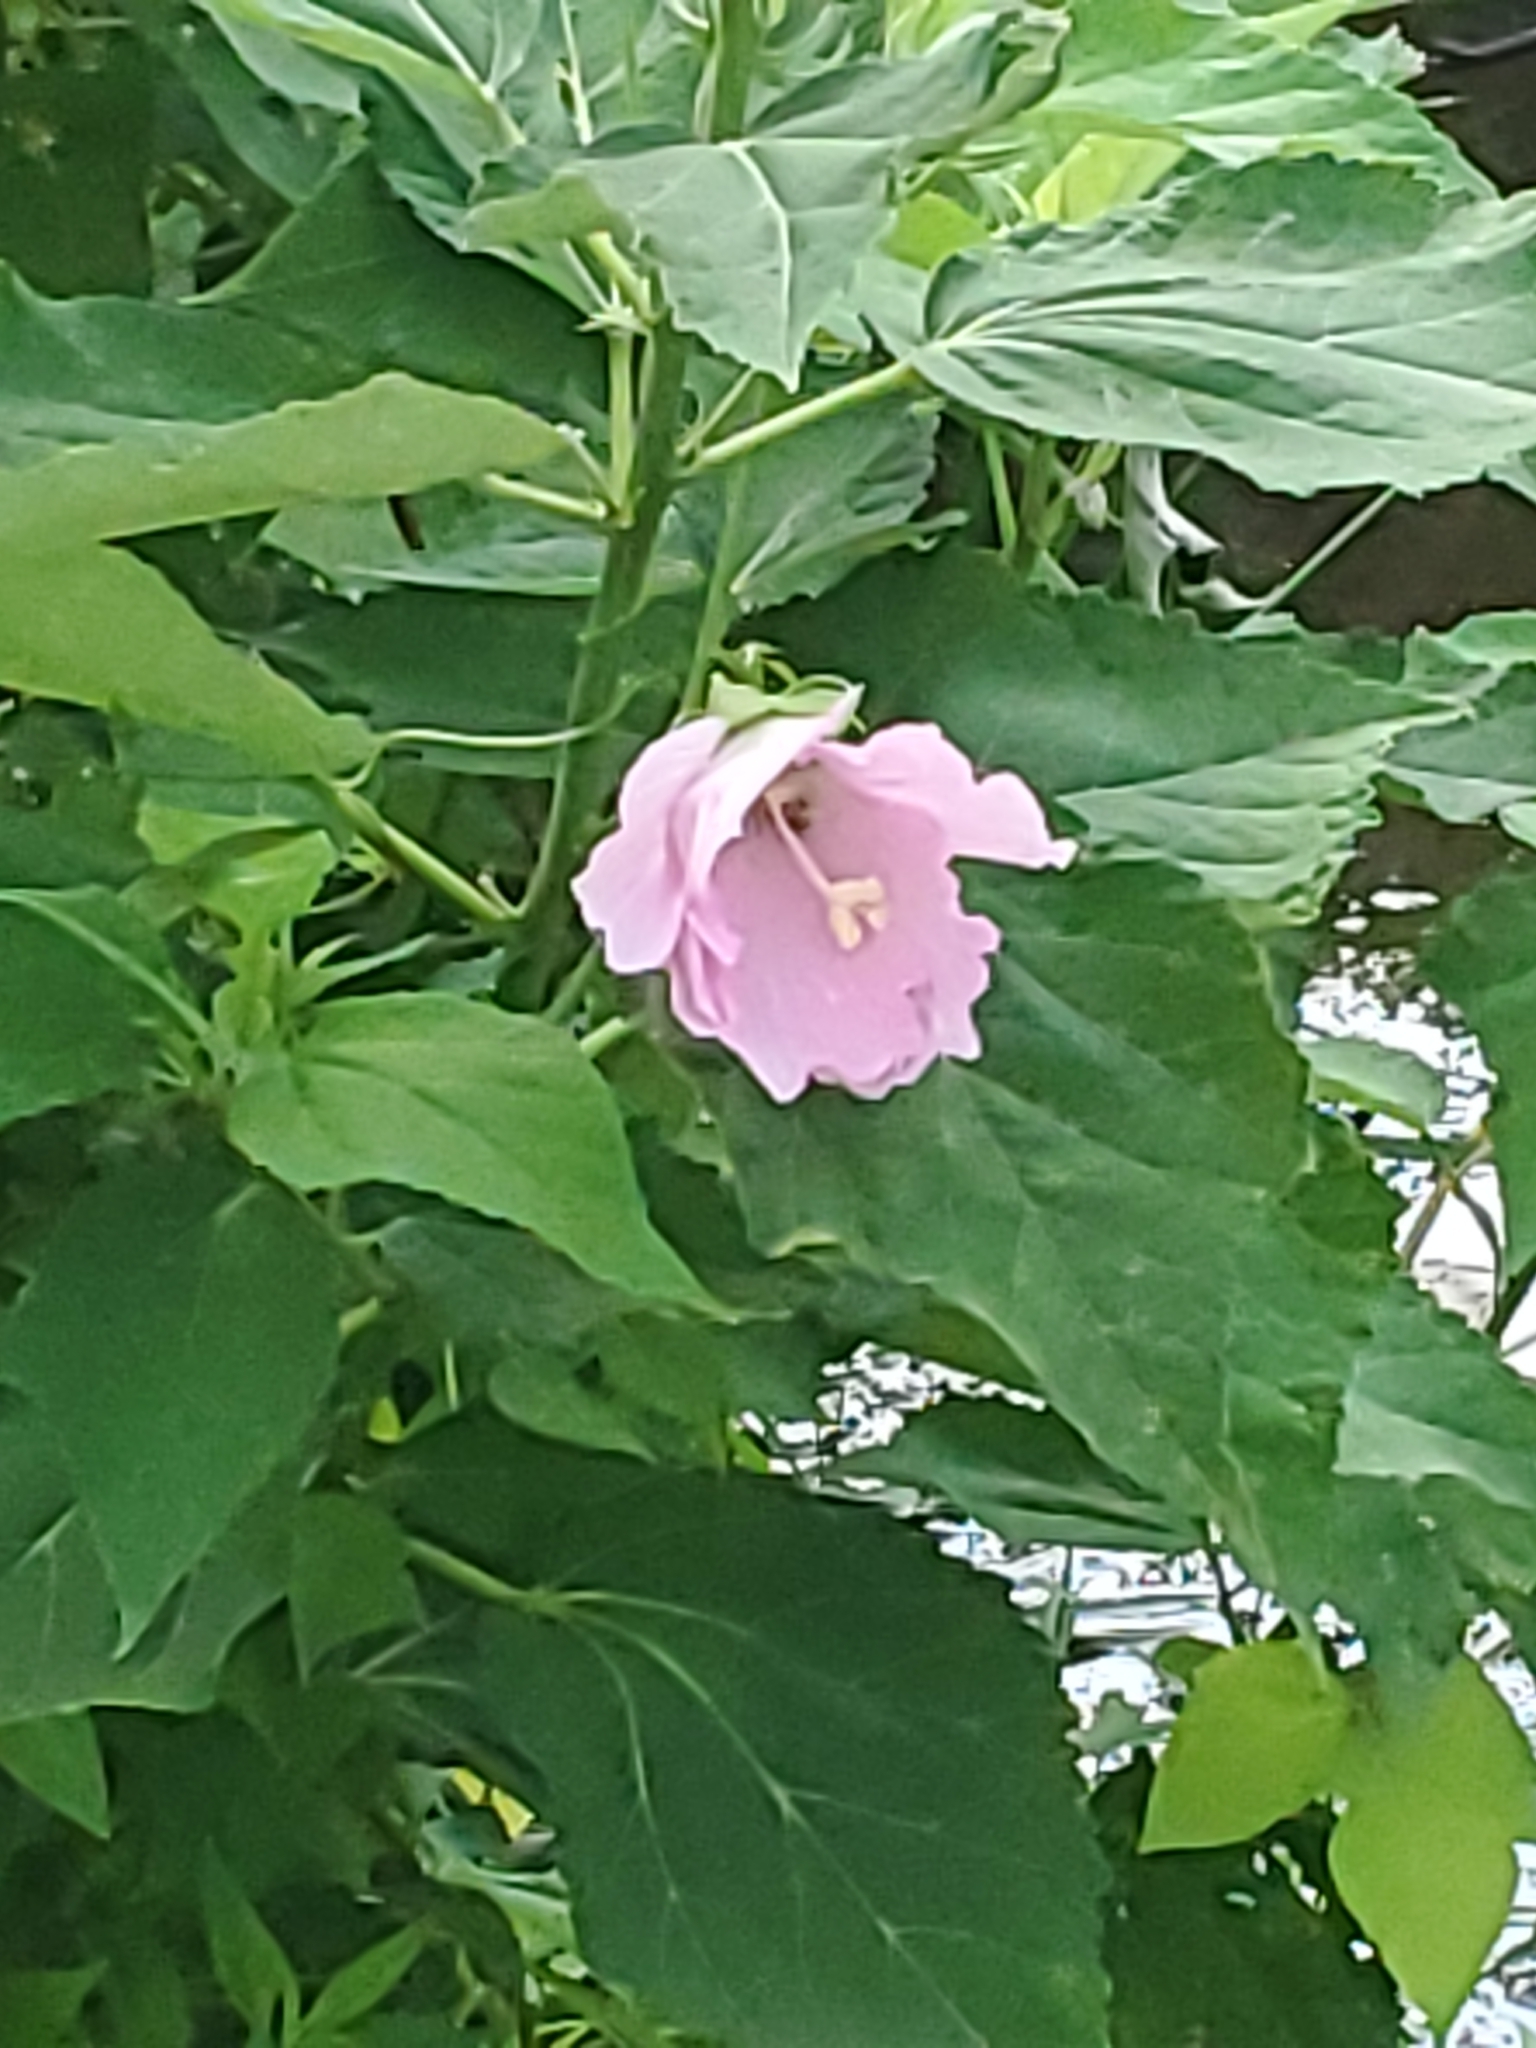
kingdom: Plantae
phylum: Tracheophyta
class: Magnoliopsida
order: Malvales
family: Malvaceae
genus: Hibiscus
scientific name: Hibiscus moscheutos
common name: Common rose-mallow
